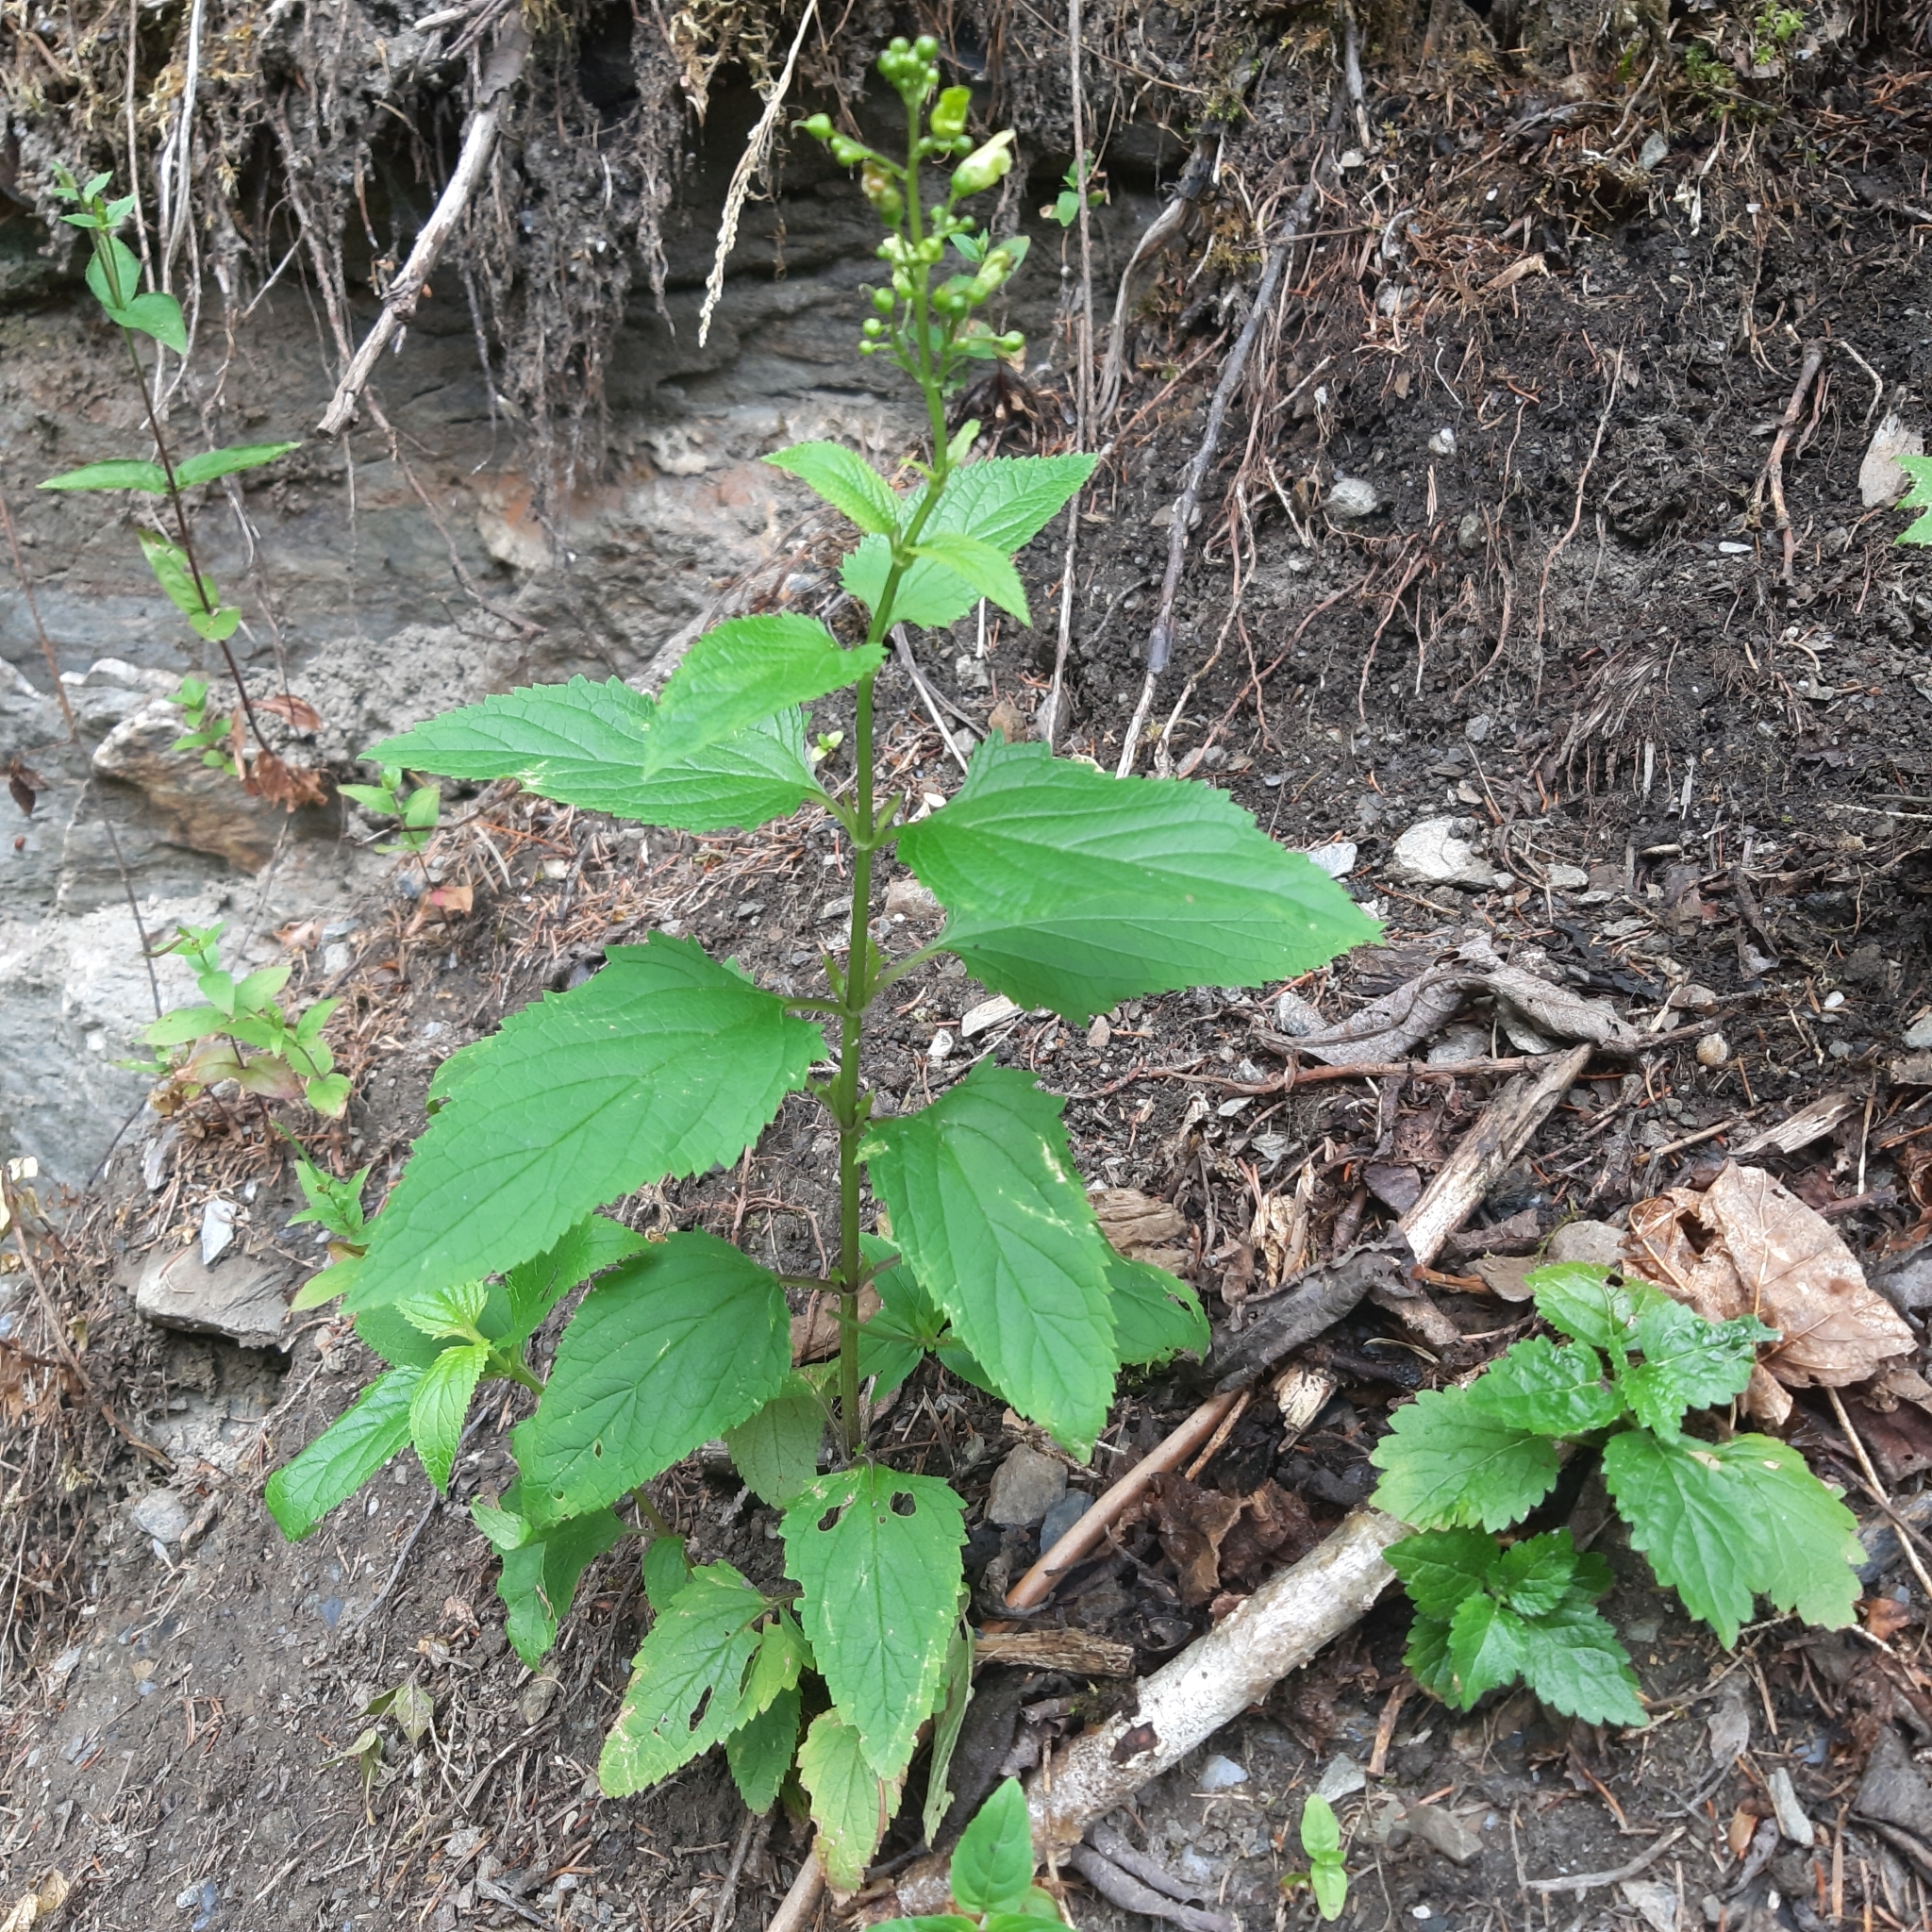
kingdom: Plantae
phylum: Tracheophyta
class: Magnoliopsida
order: Lamiales
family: Scrophulariaceae
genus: Scrophularia
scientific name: Scrophularia nodosa
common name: Common figwort
